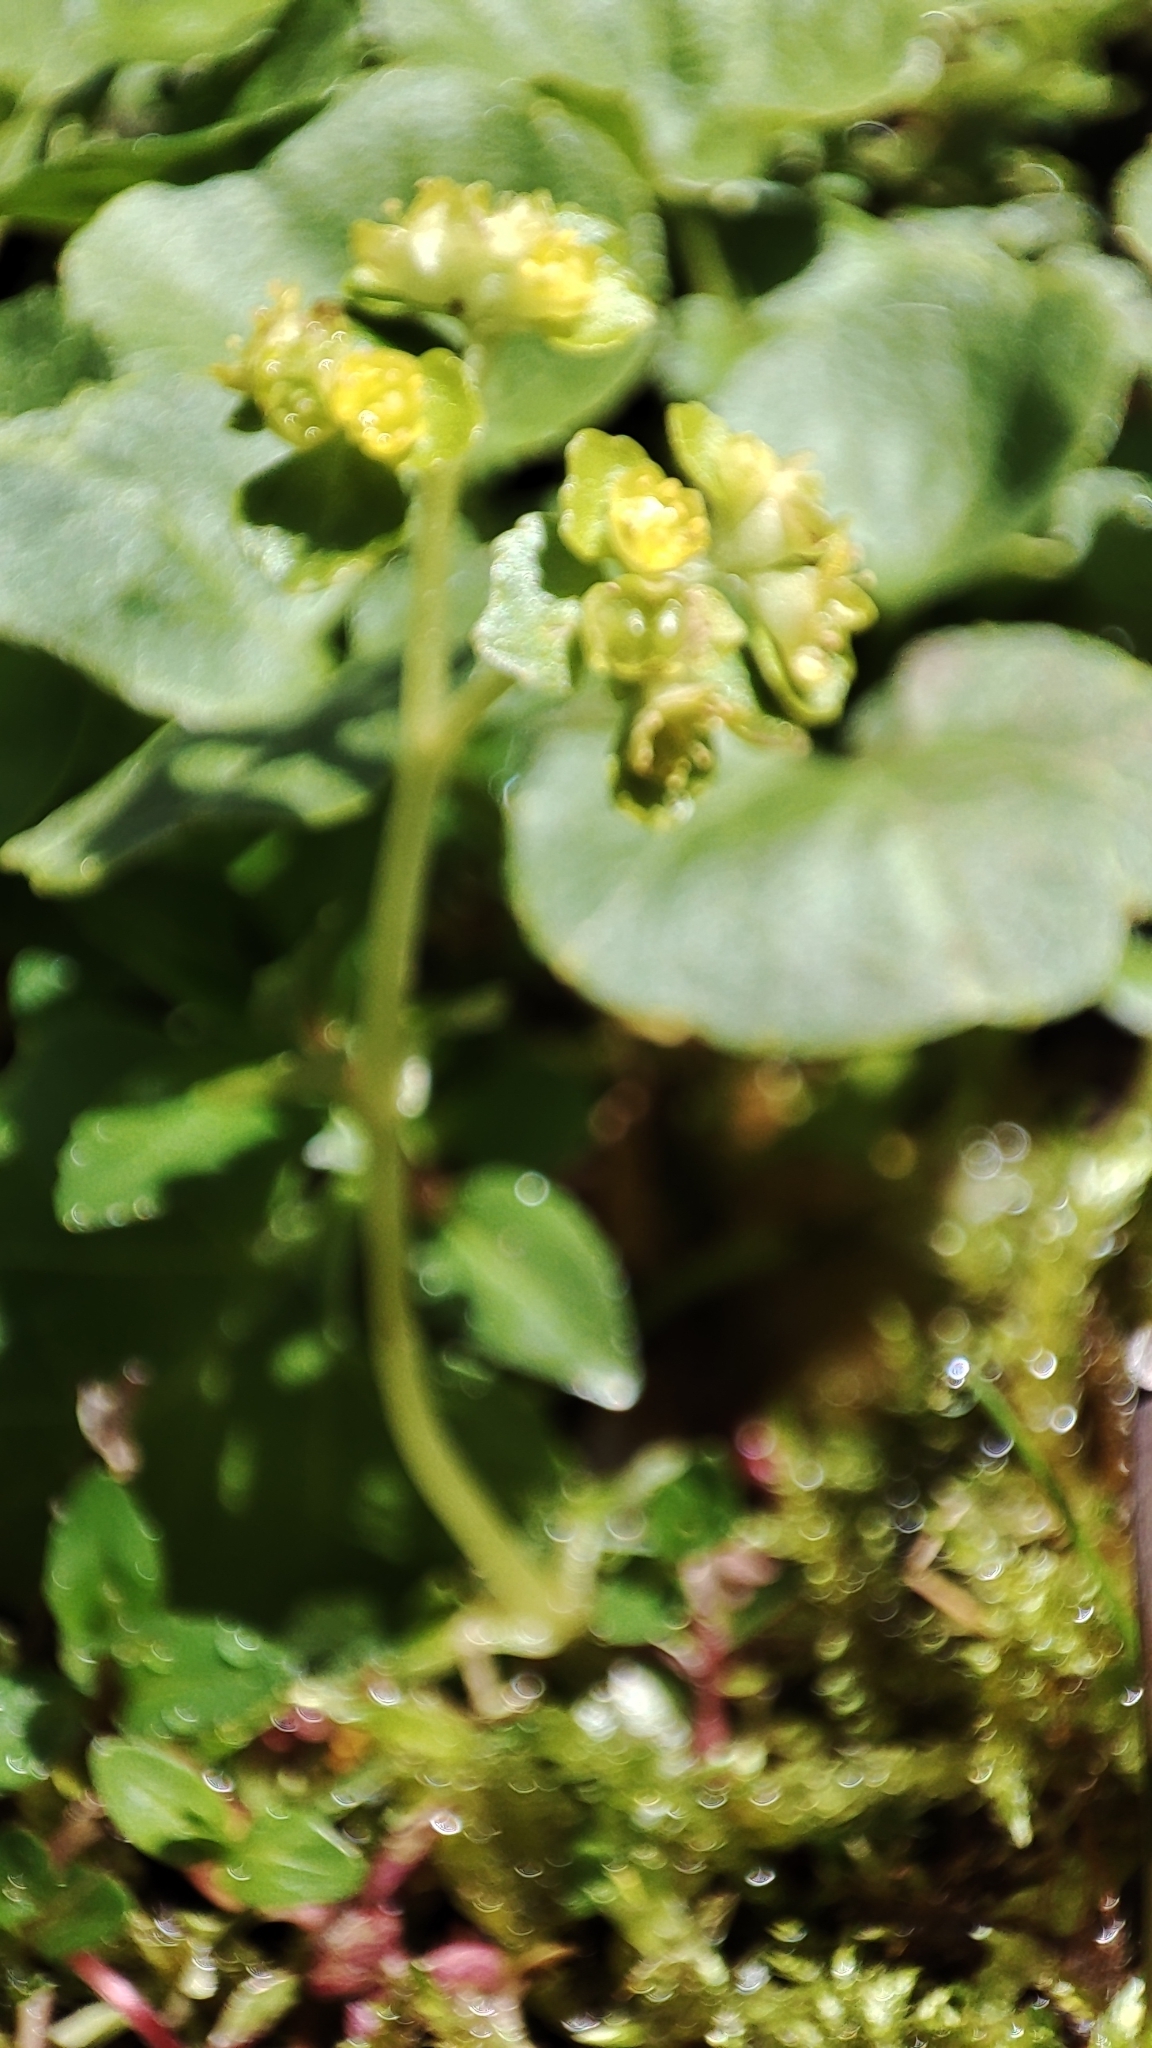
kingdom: Plantae
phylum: Tracheophyta
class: Magnoliopsida
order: Saxifragales
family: Saxifragaceae
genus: Chrysosplenium
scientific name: Chrysosplenium oppositifolium
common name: Opposite-leaved golden-saxifrage
